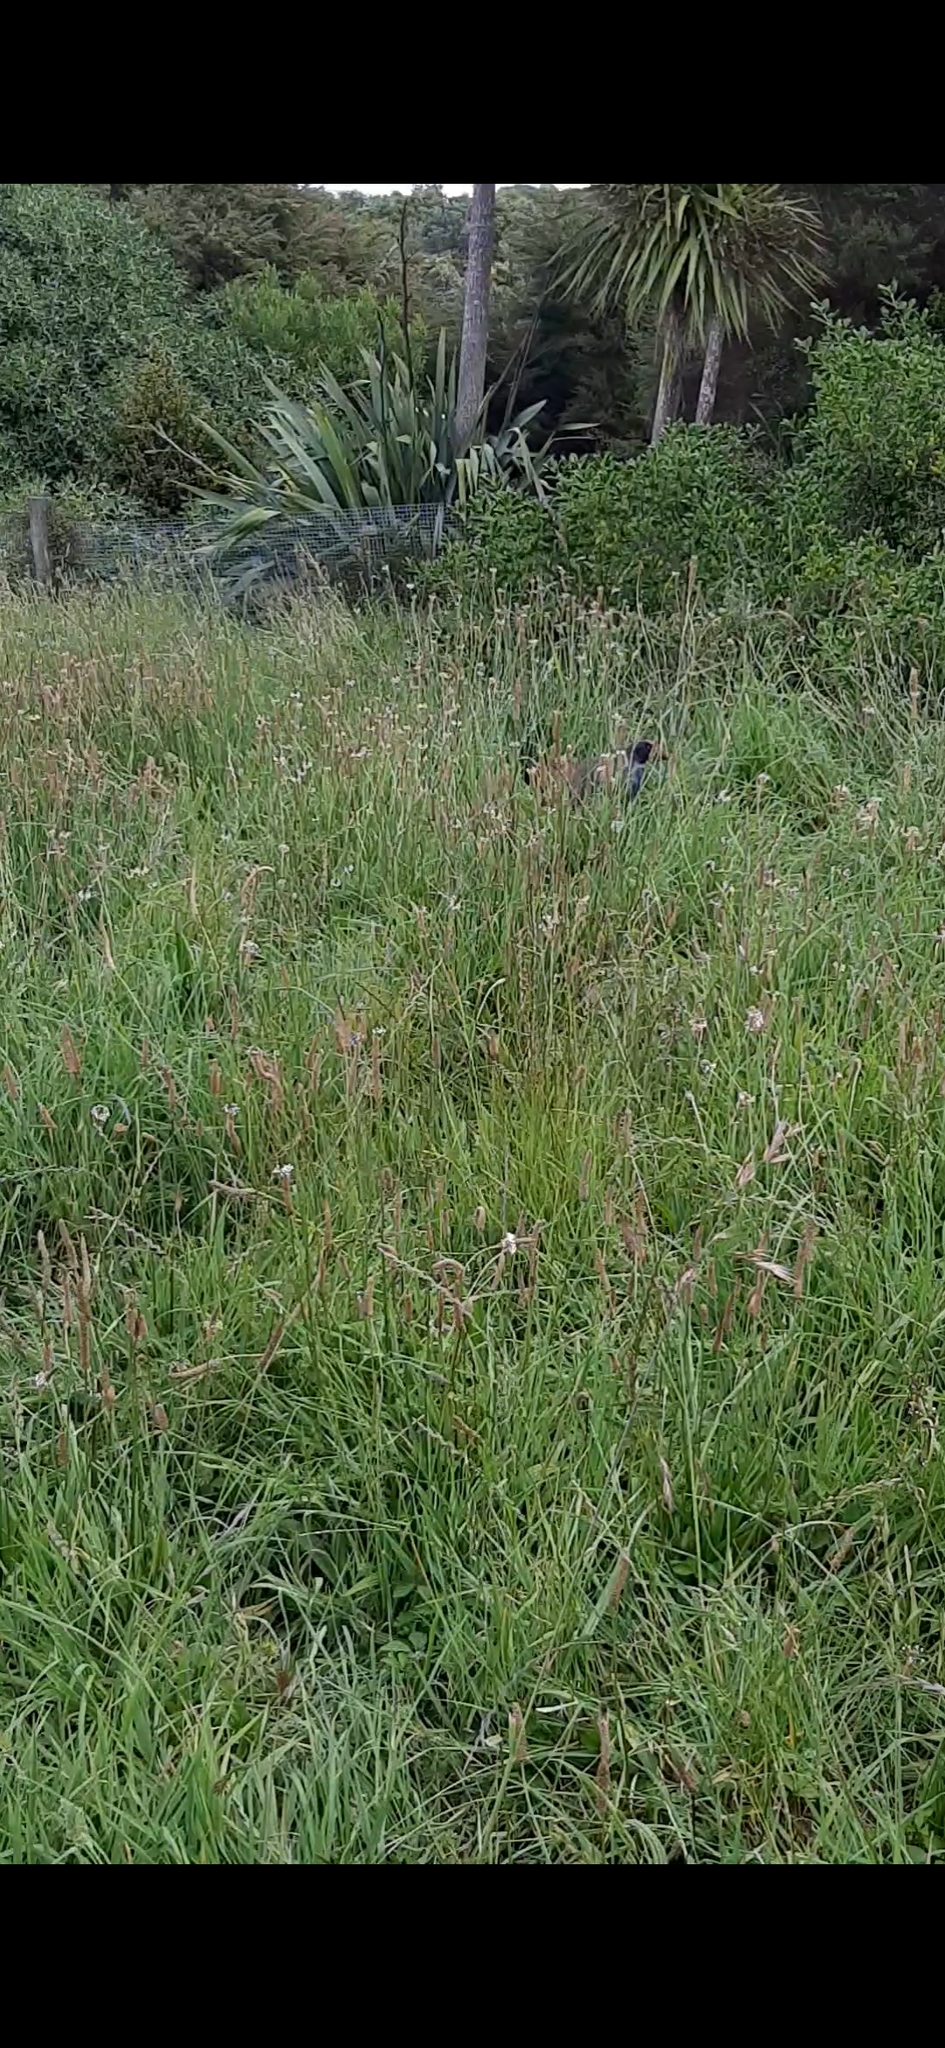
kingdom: Animalia
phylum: Chordata
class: Aves
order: Gruiformes
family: Rallidae
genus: Porphyrio
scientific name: Porphyrio hochstetteri
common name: South island takahe
